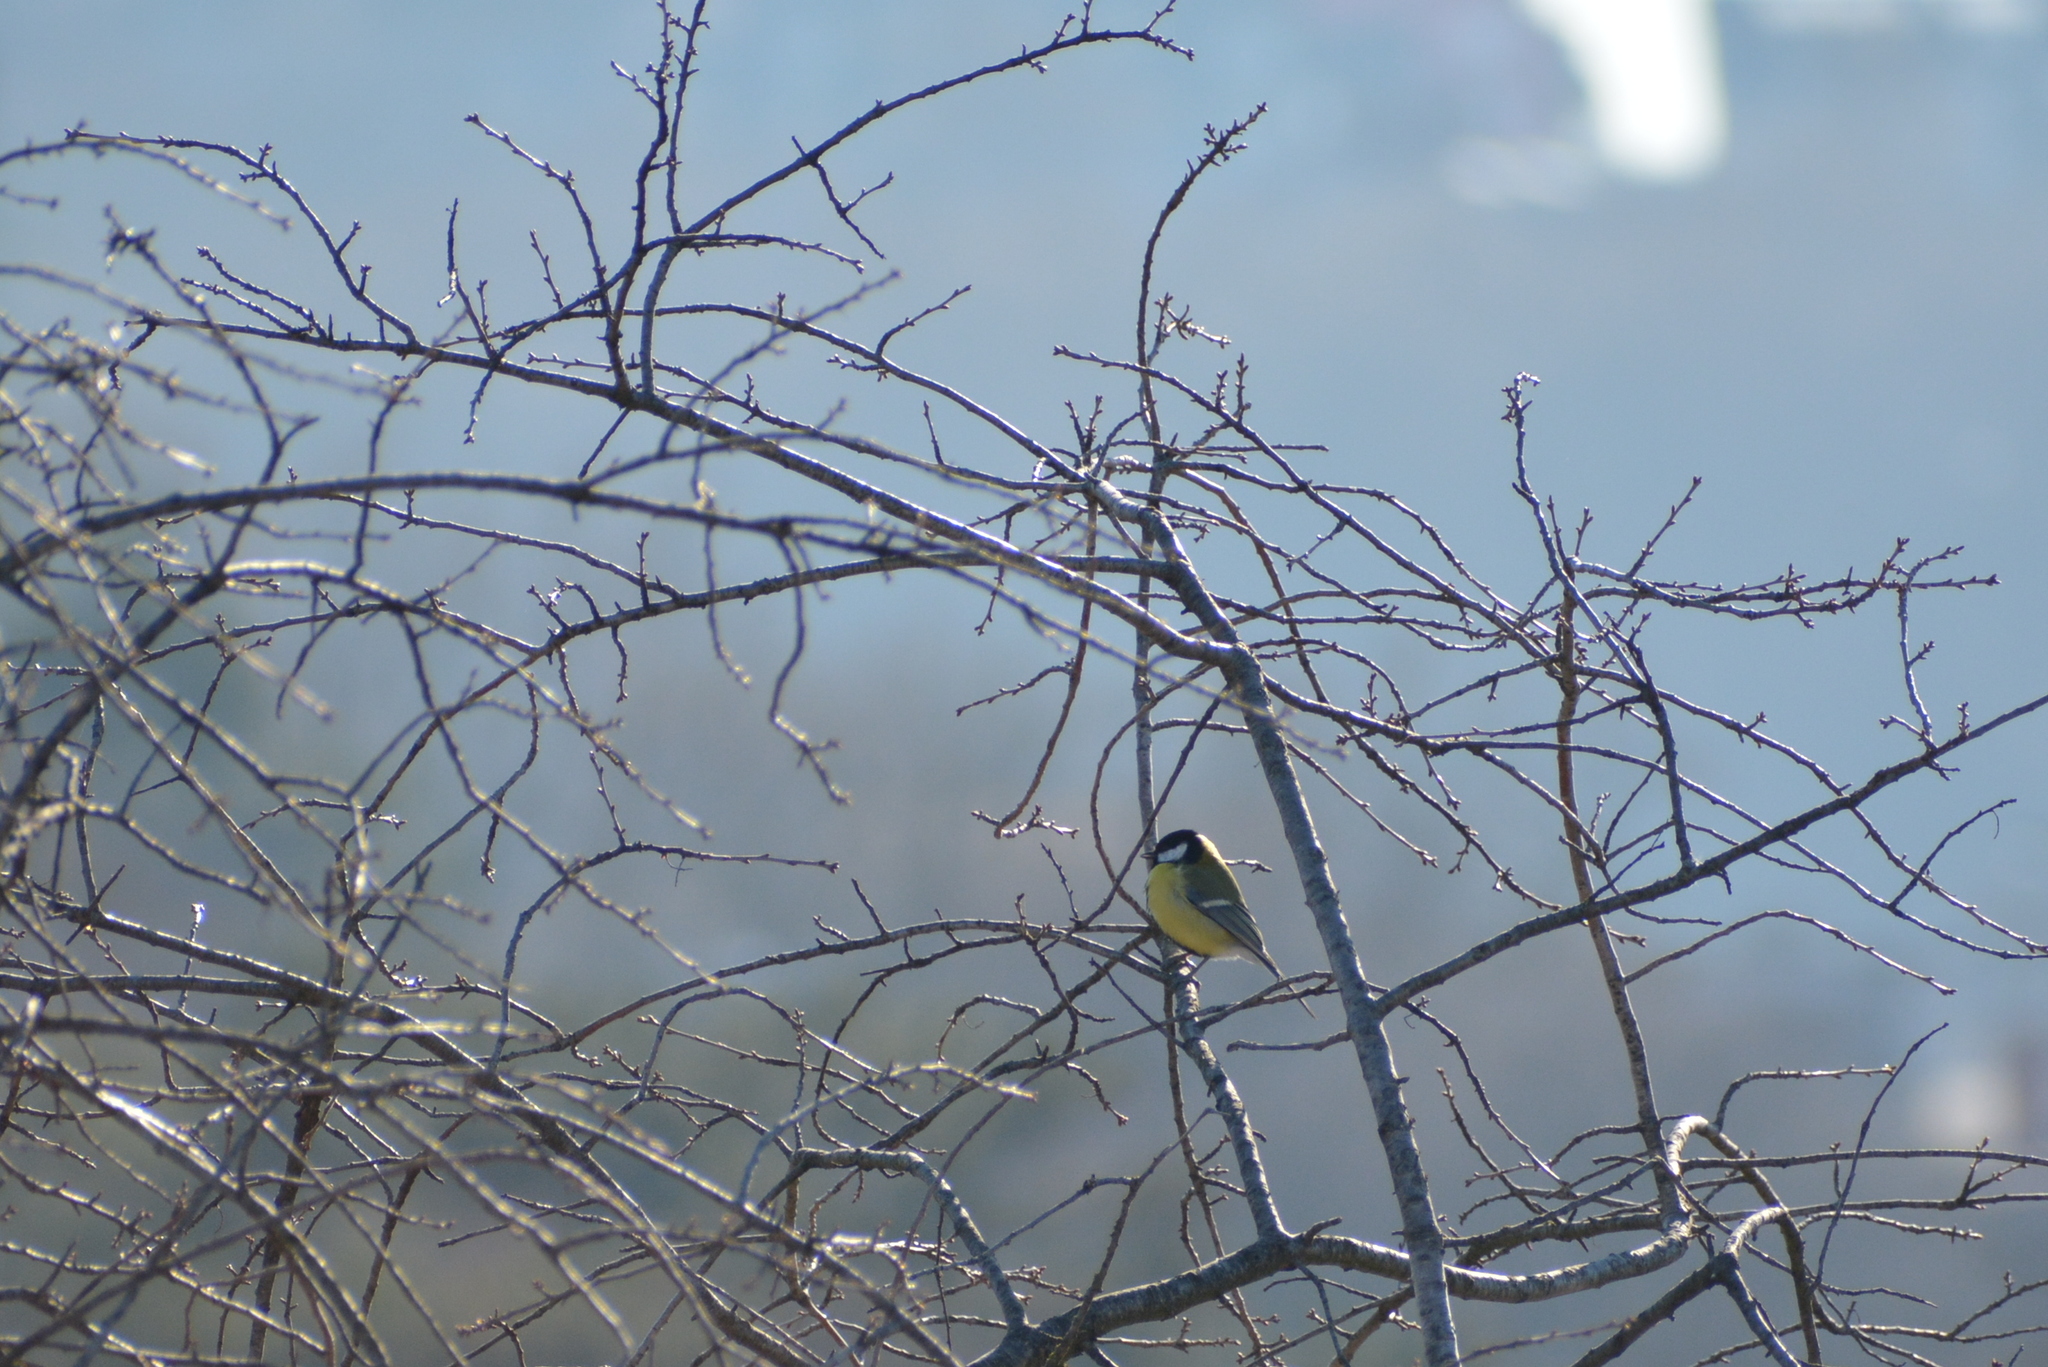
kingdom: Animalia
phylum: Chordata
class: Aves
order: Passeriformes
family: Paridae
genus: Parus
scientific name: Parus major
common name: Great tit
